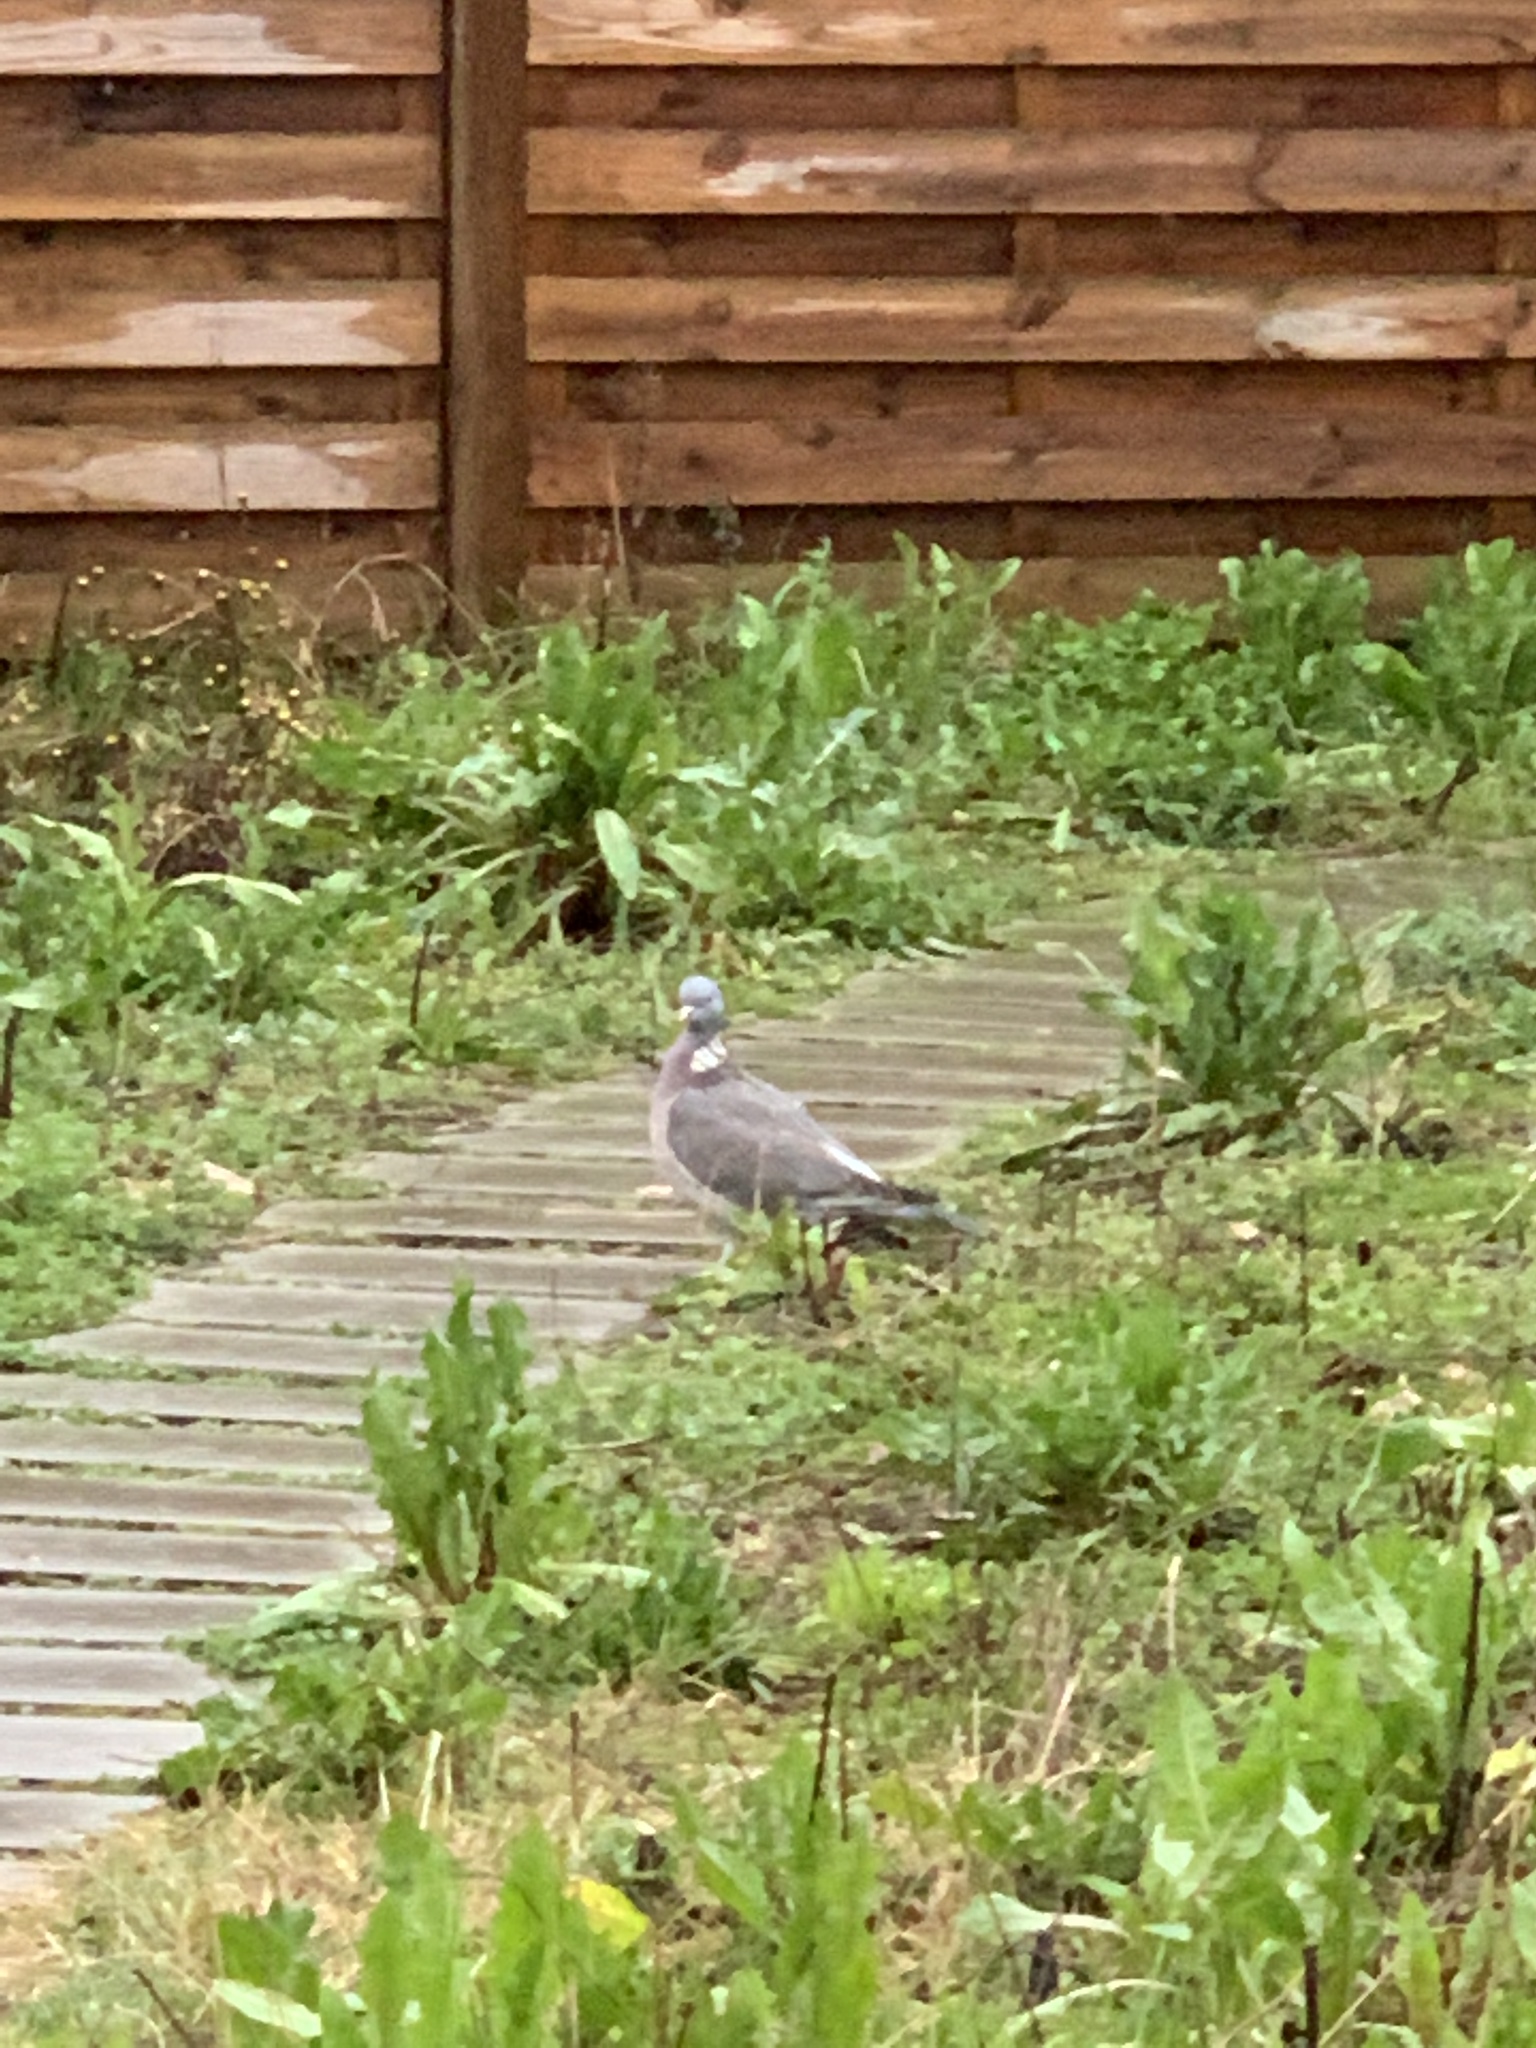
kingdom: Animalia
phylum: Chordata
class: Aves
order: Columbiformes
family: Columbidae
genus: Columba
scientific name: Columba palumbus
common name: Common wood pigeon
